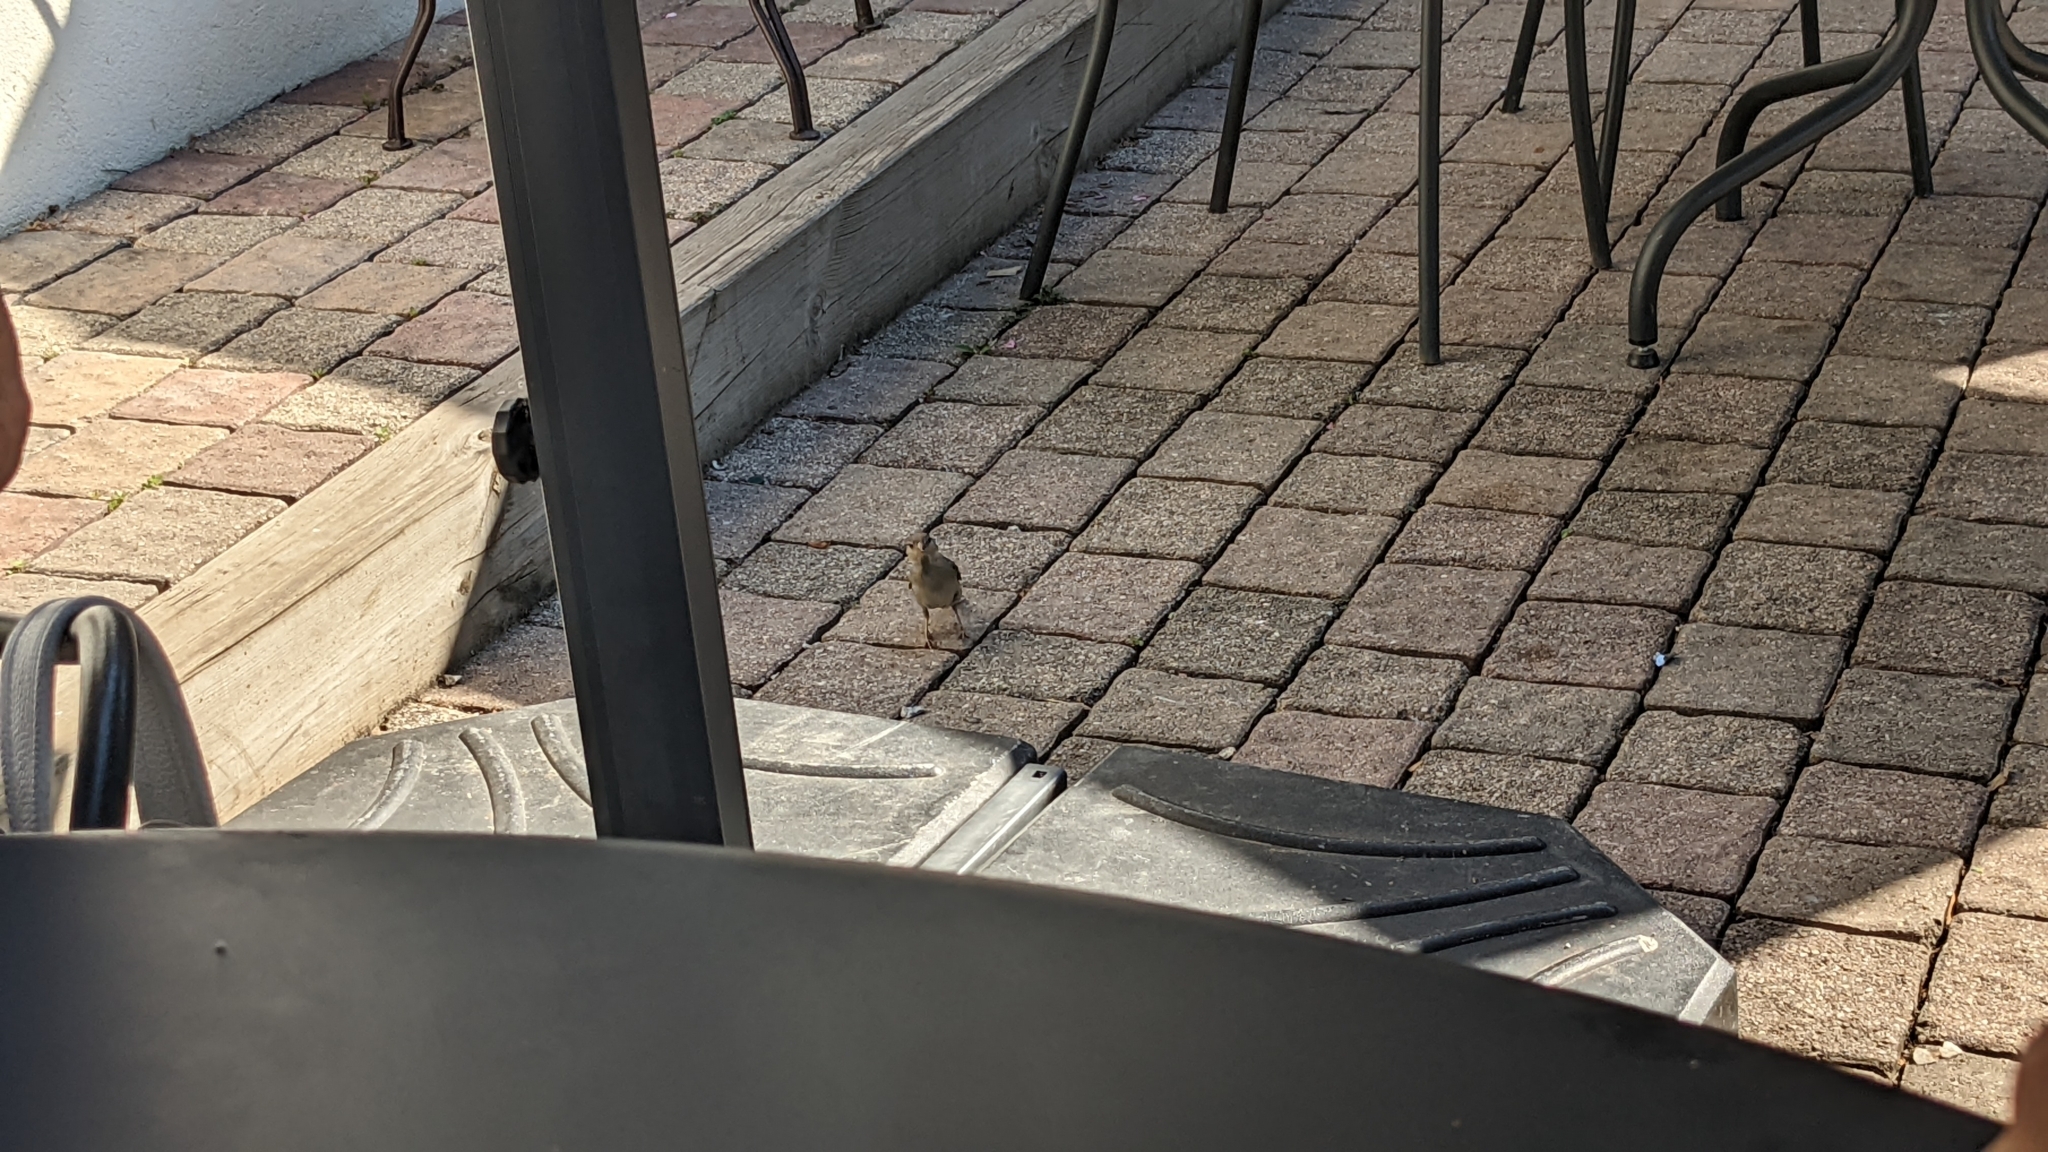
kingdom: Animalia
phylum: Chordata
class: Aves
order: Passeriformes
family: Passeridae
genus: Passer
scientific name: Passer domesticus
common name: House sparrow
